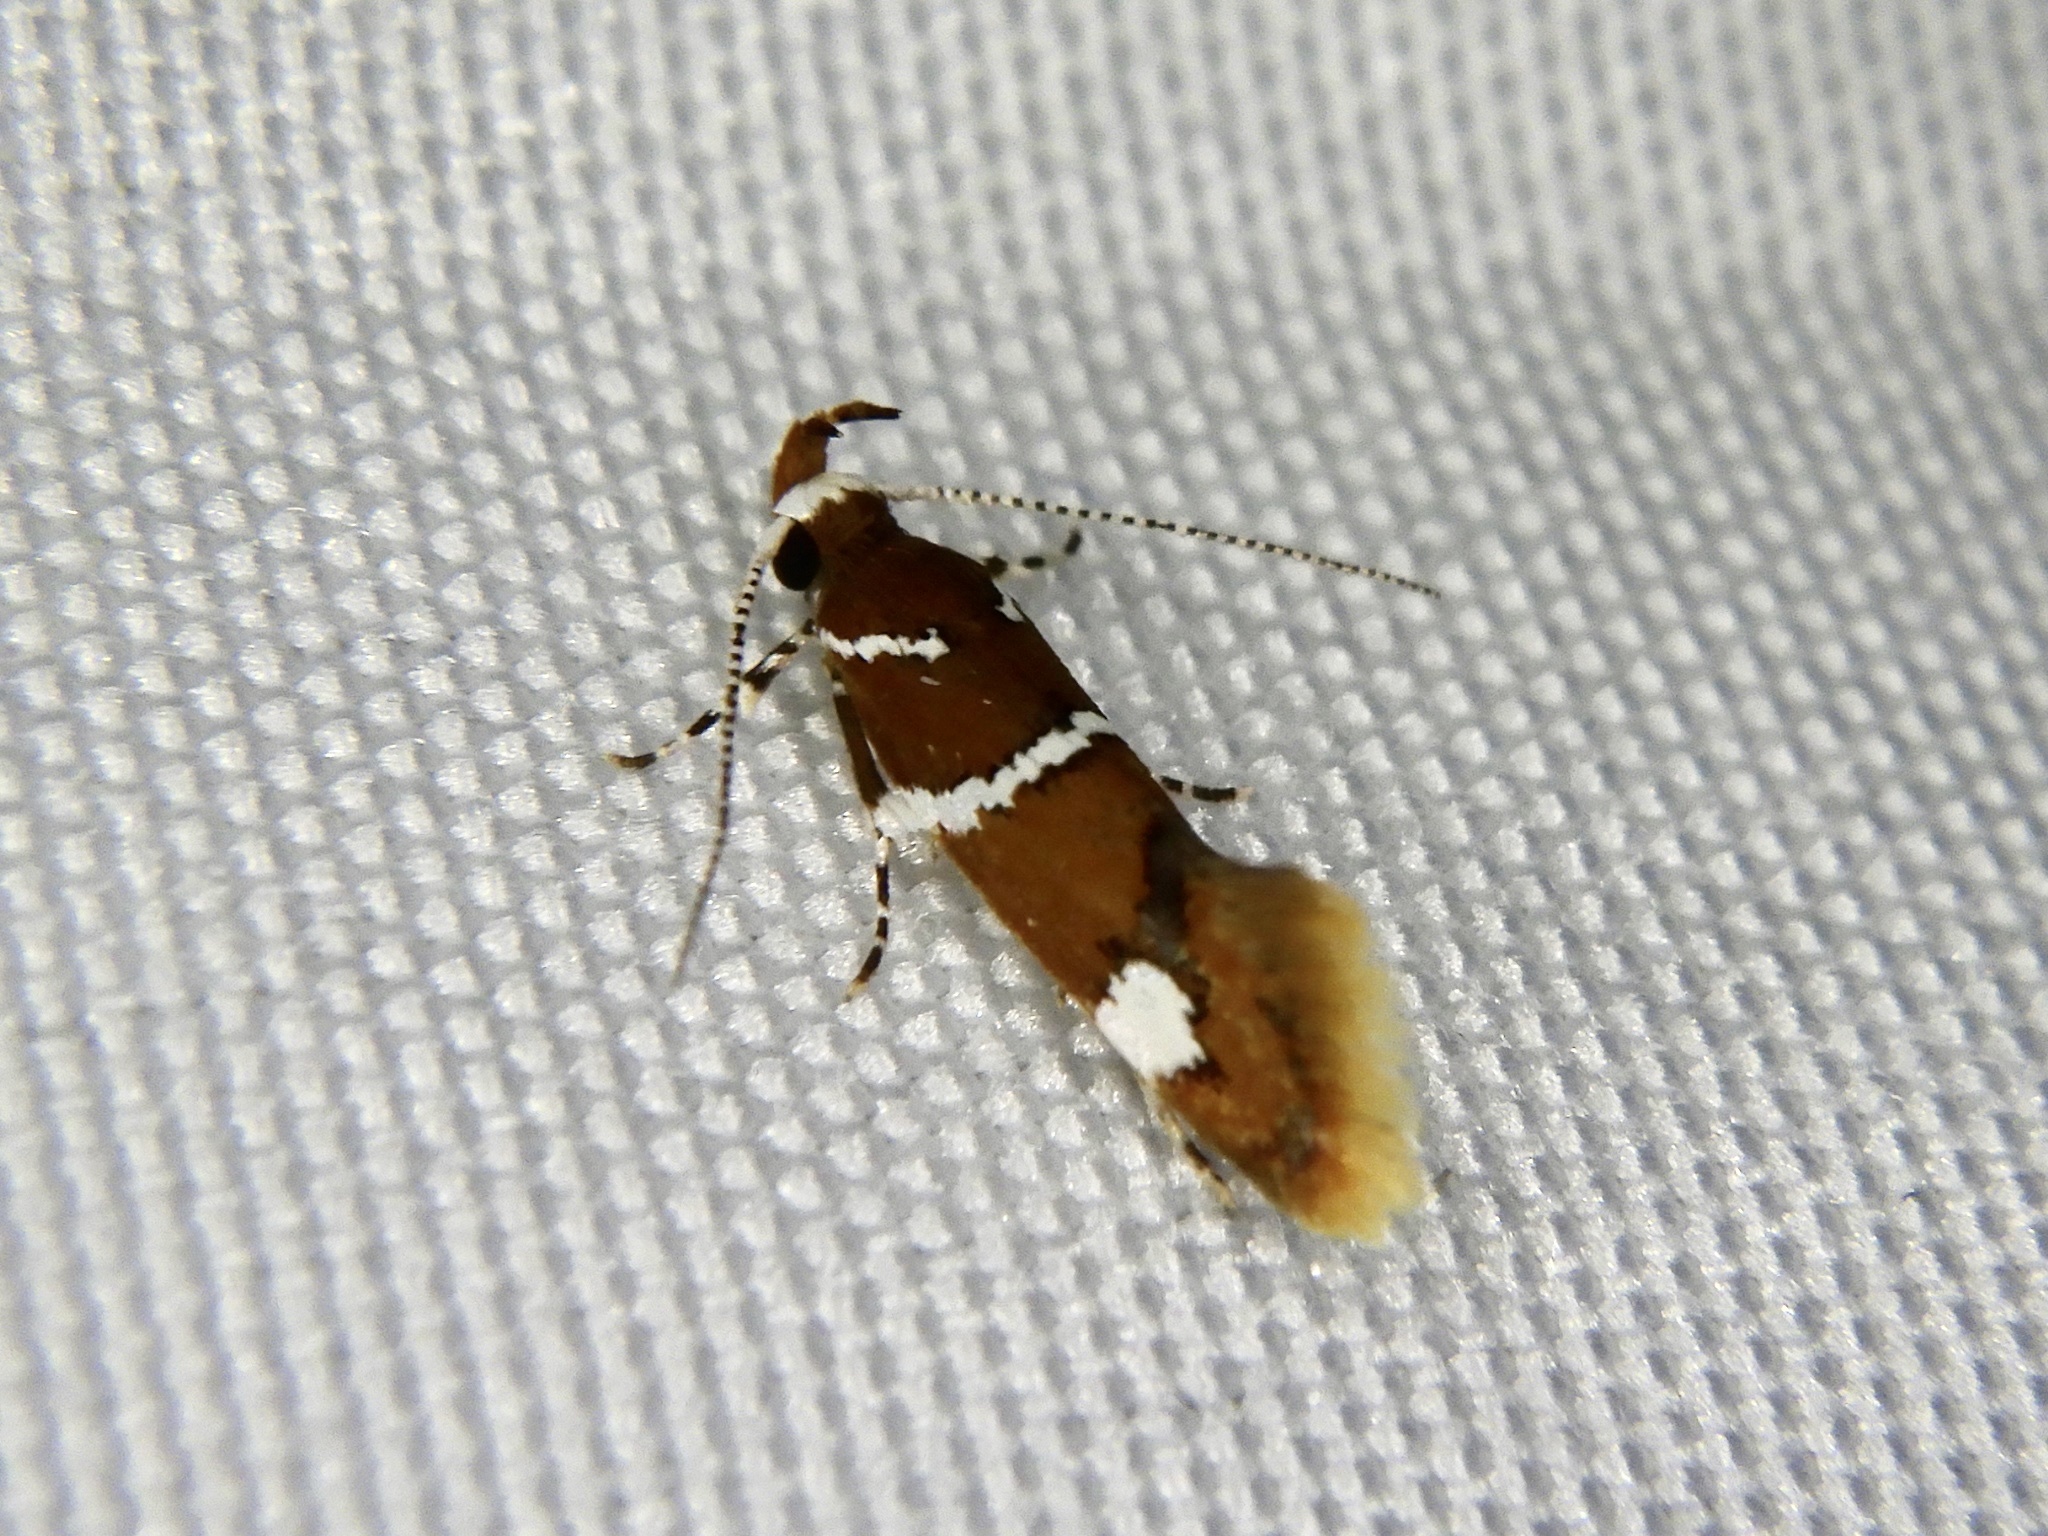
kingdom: Animalia
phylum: Arthropoda
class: Insecta
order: Lepidoptera
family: Oecophoridae
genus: Promalactis
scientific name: Promalactis suzukiella
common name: Moth
